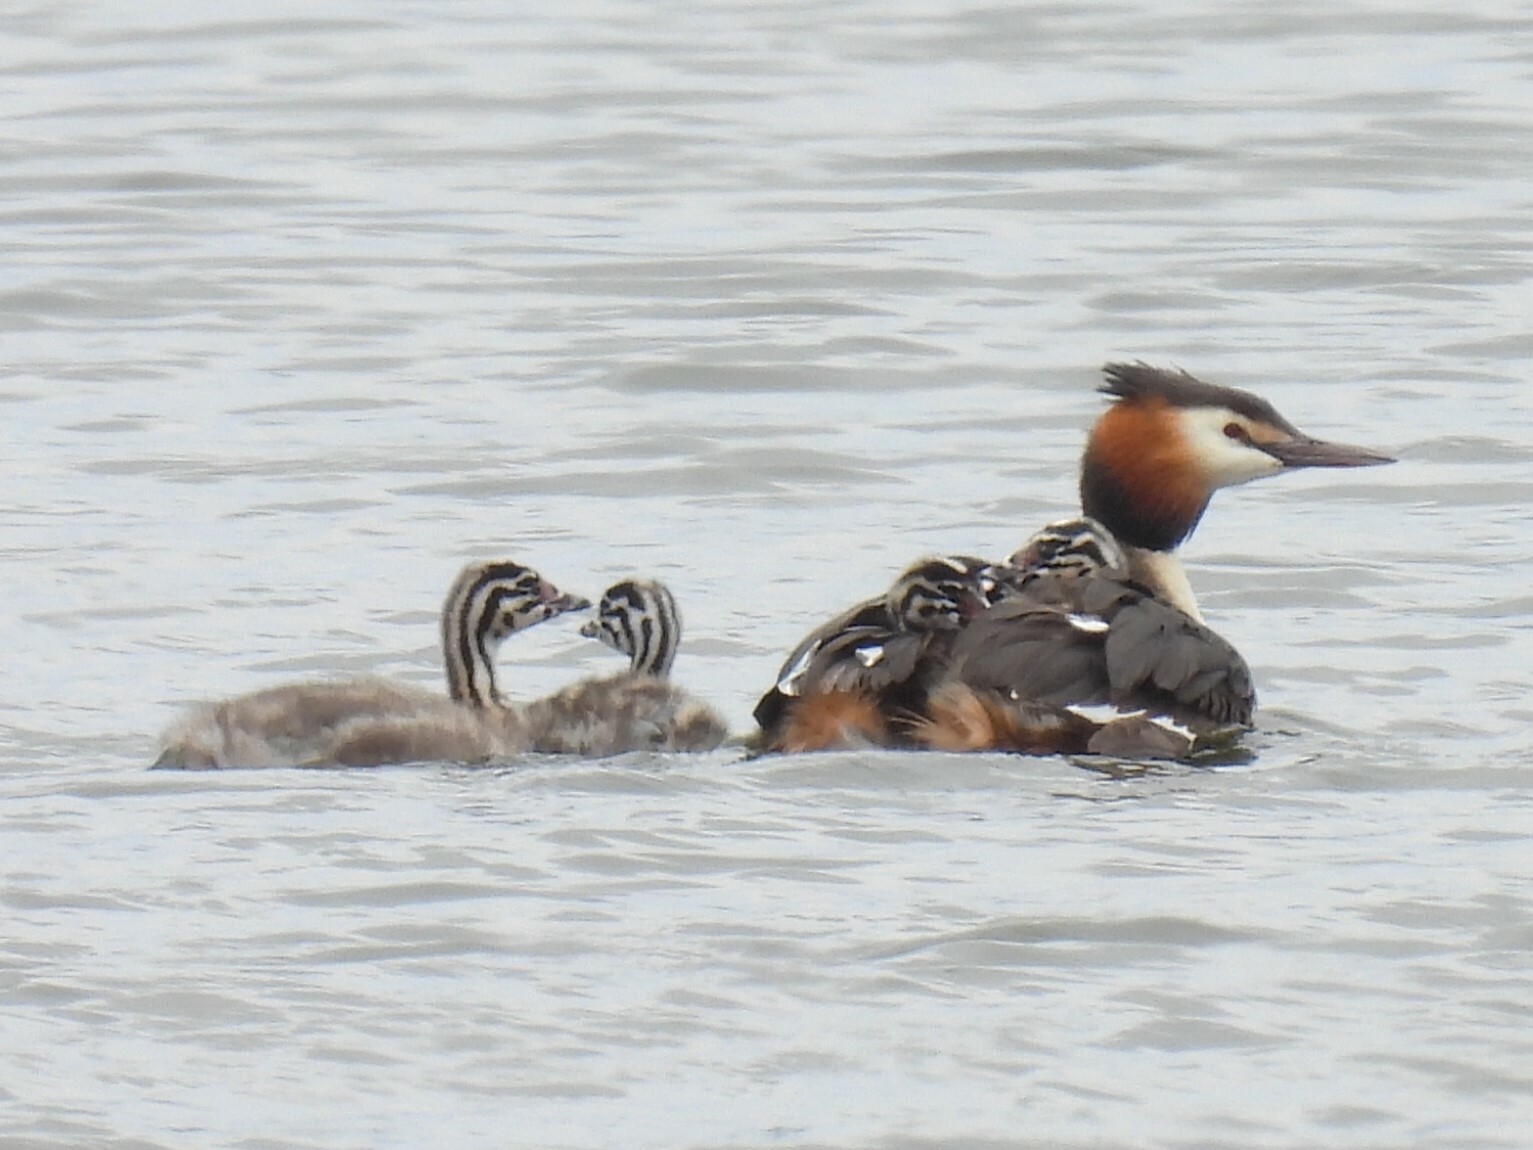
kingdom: Animalia
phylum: Chordata
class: Aves
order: Podicipediformes
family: Podicipedidae
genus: Podiceps
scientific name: Podiceps cristatus
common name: Great crested grebe
